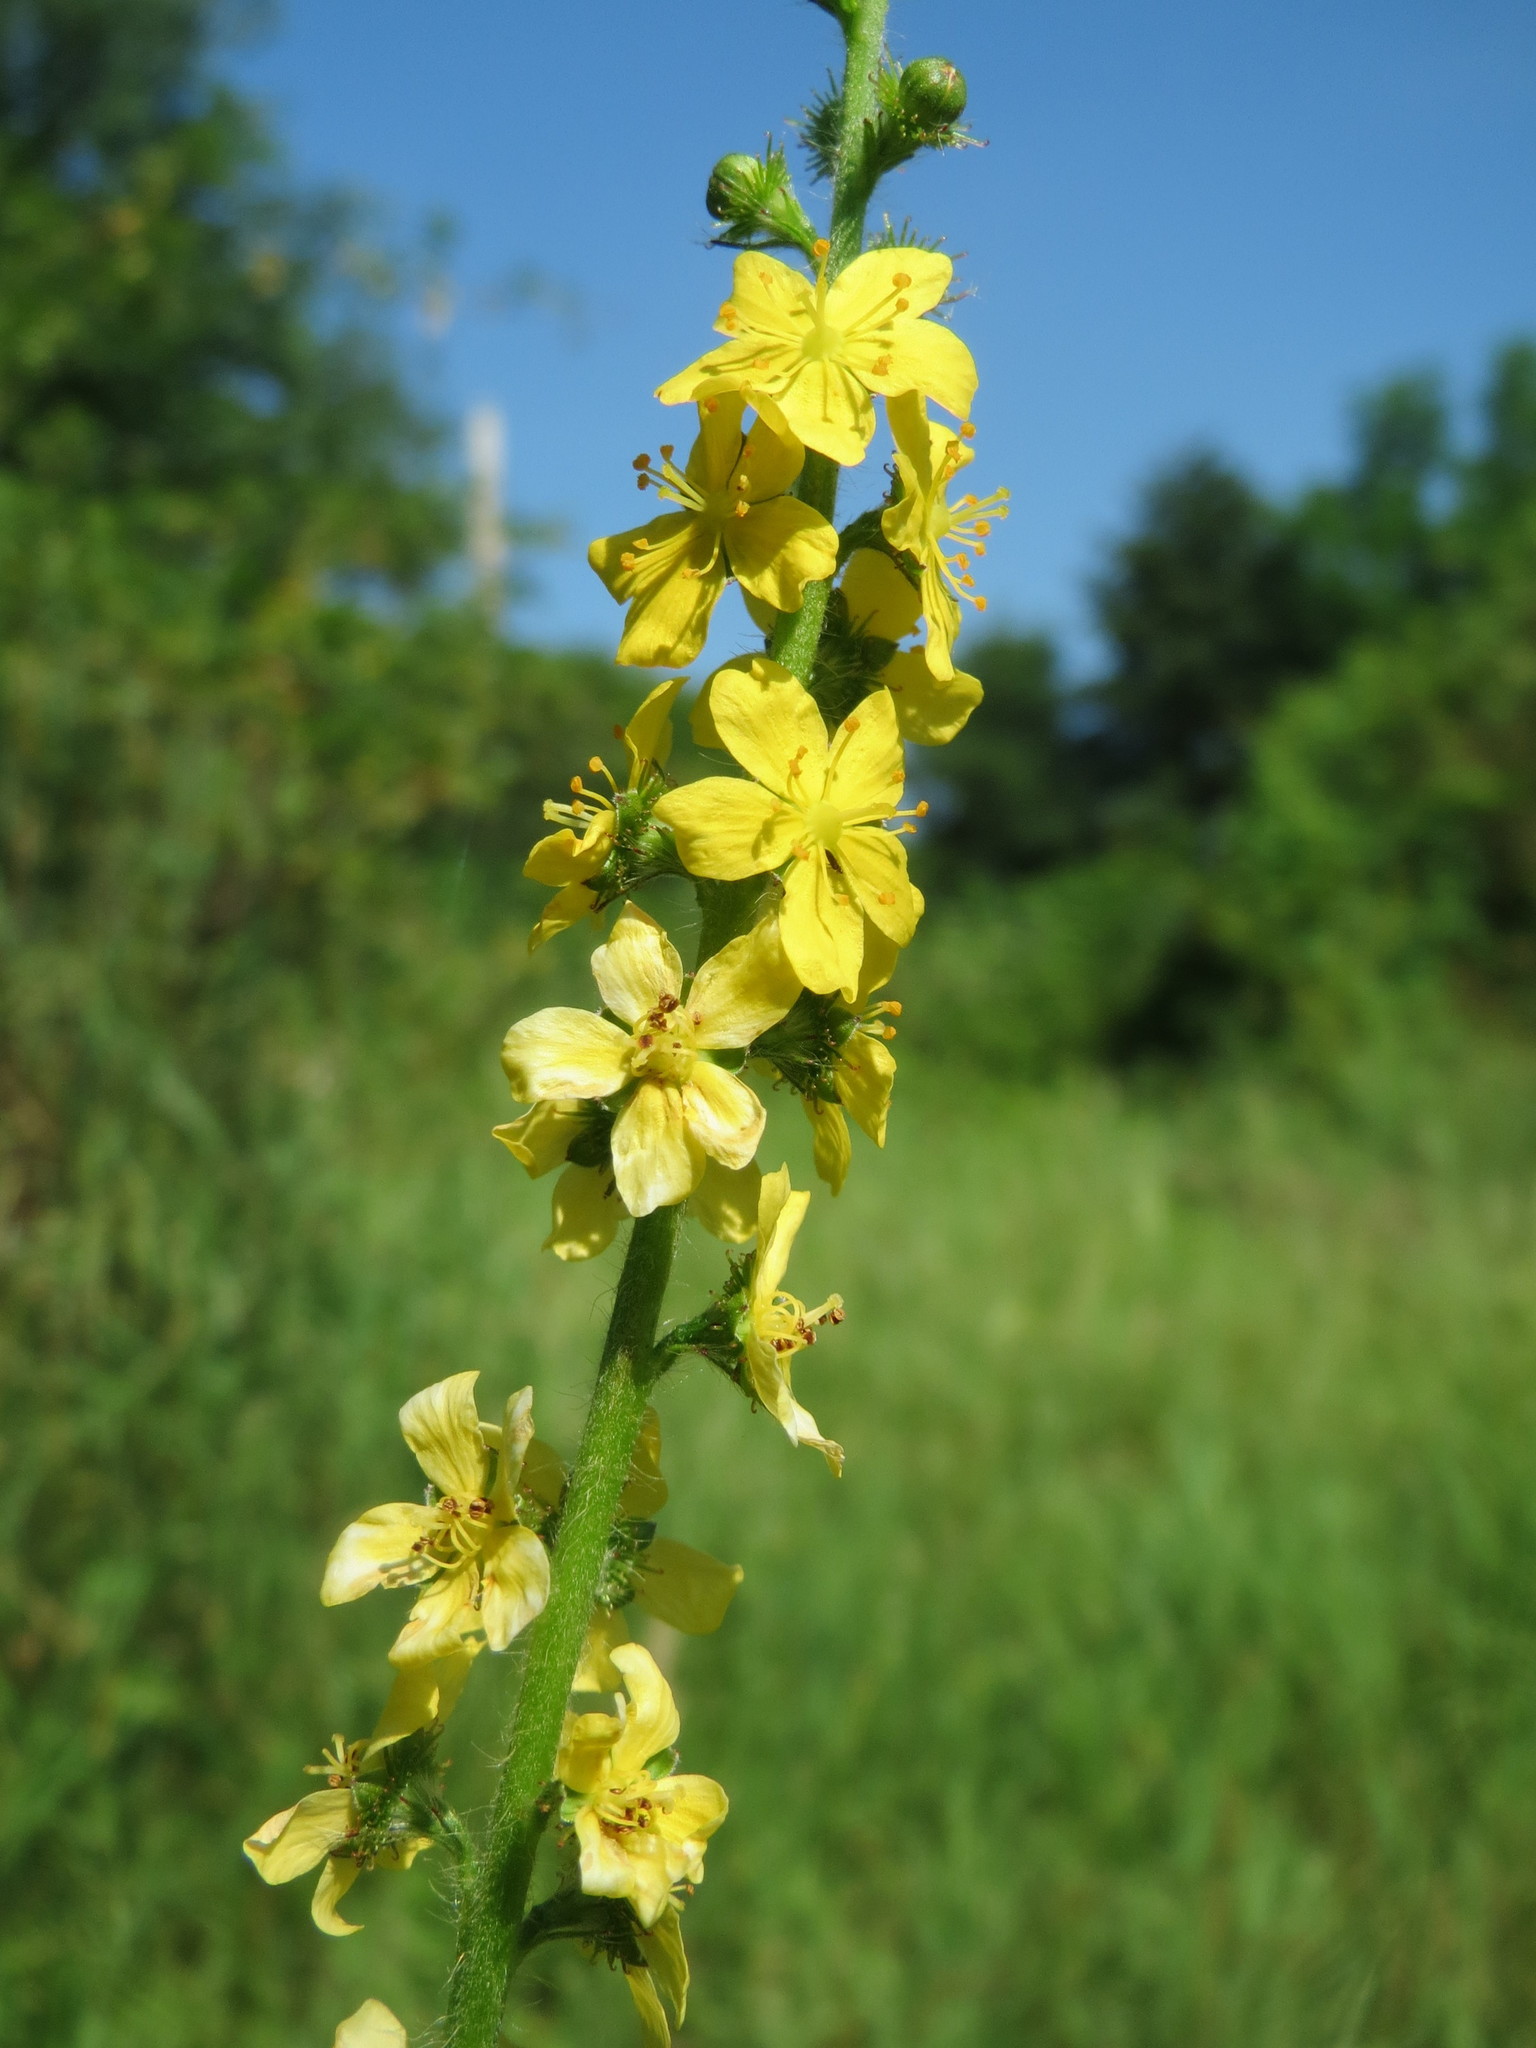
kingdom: Plantae
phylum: Tracheophyta
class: Magnoliopsida
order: Rosales
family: Rosaceae
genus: Agrimonia
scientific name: Agrimonia eupatoria
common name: Agrimony
